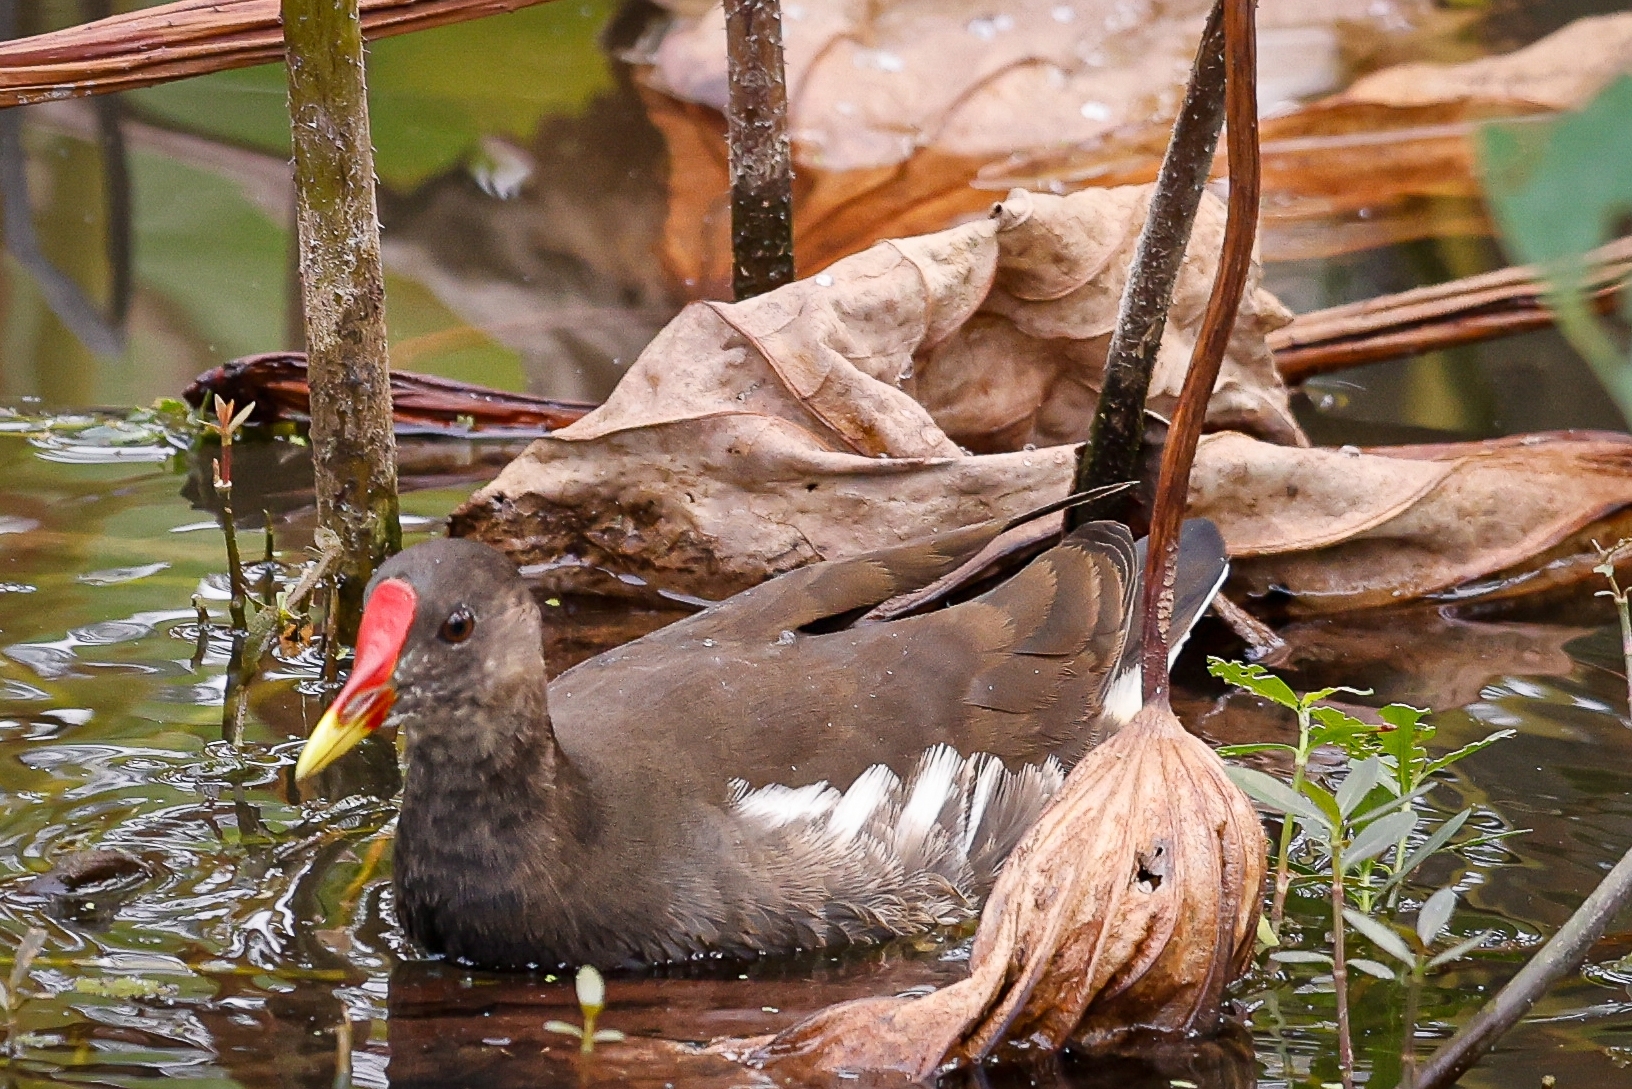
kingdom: Animalia
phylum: Chordata
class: Aves
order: Gruiformes
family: Rallidae
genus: Gallinula
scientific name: Gallinula chloropus
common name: Common moorhen
